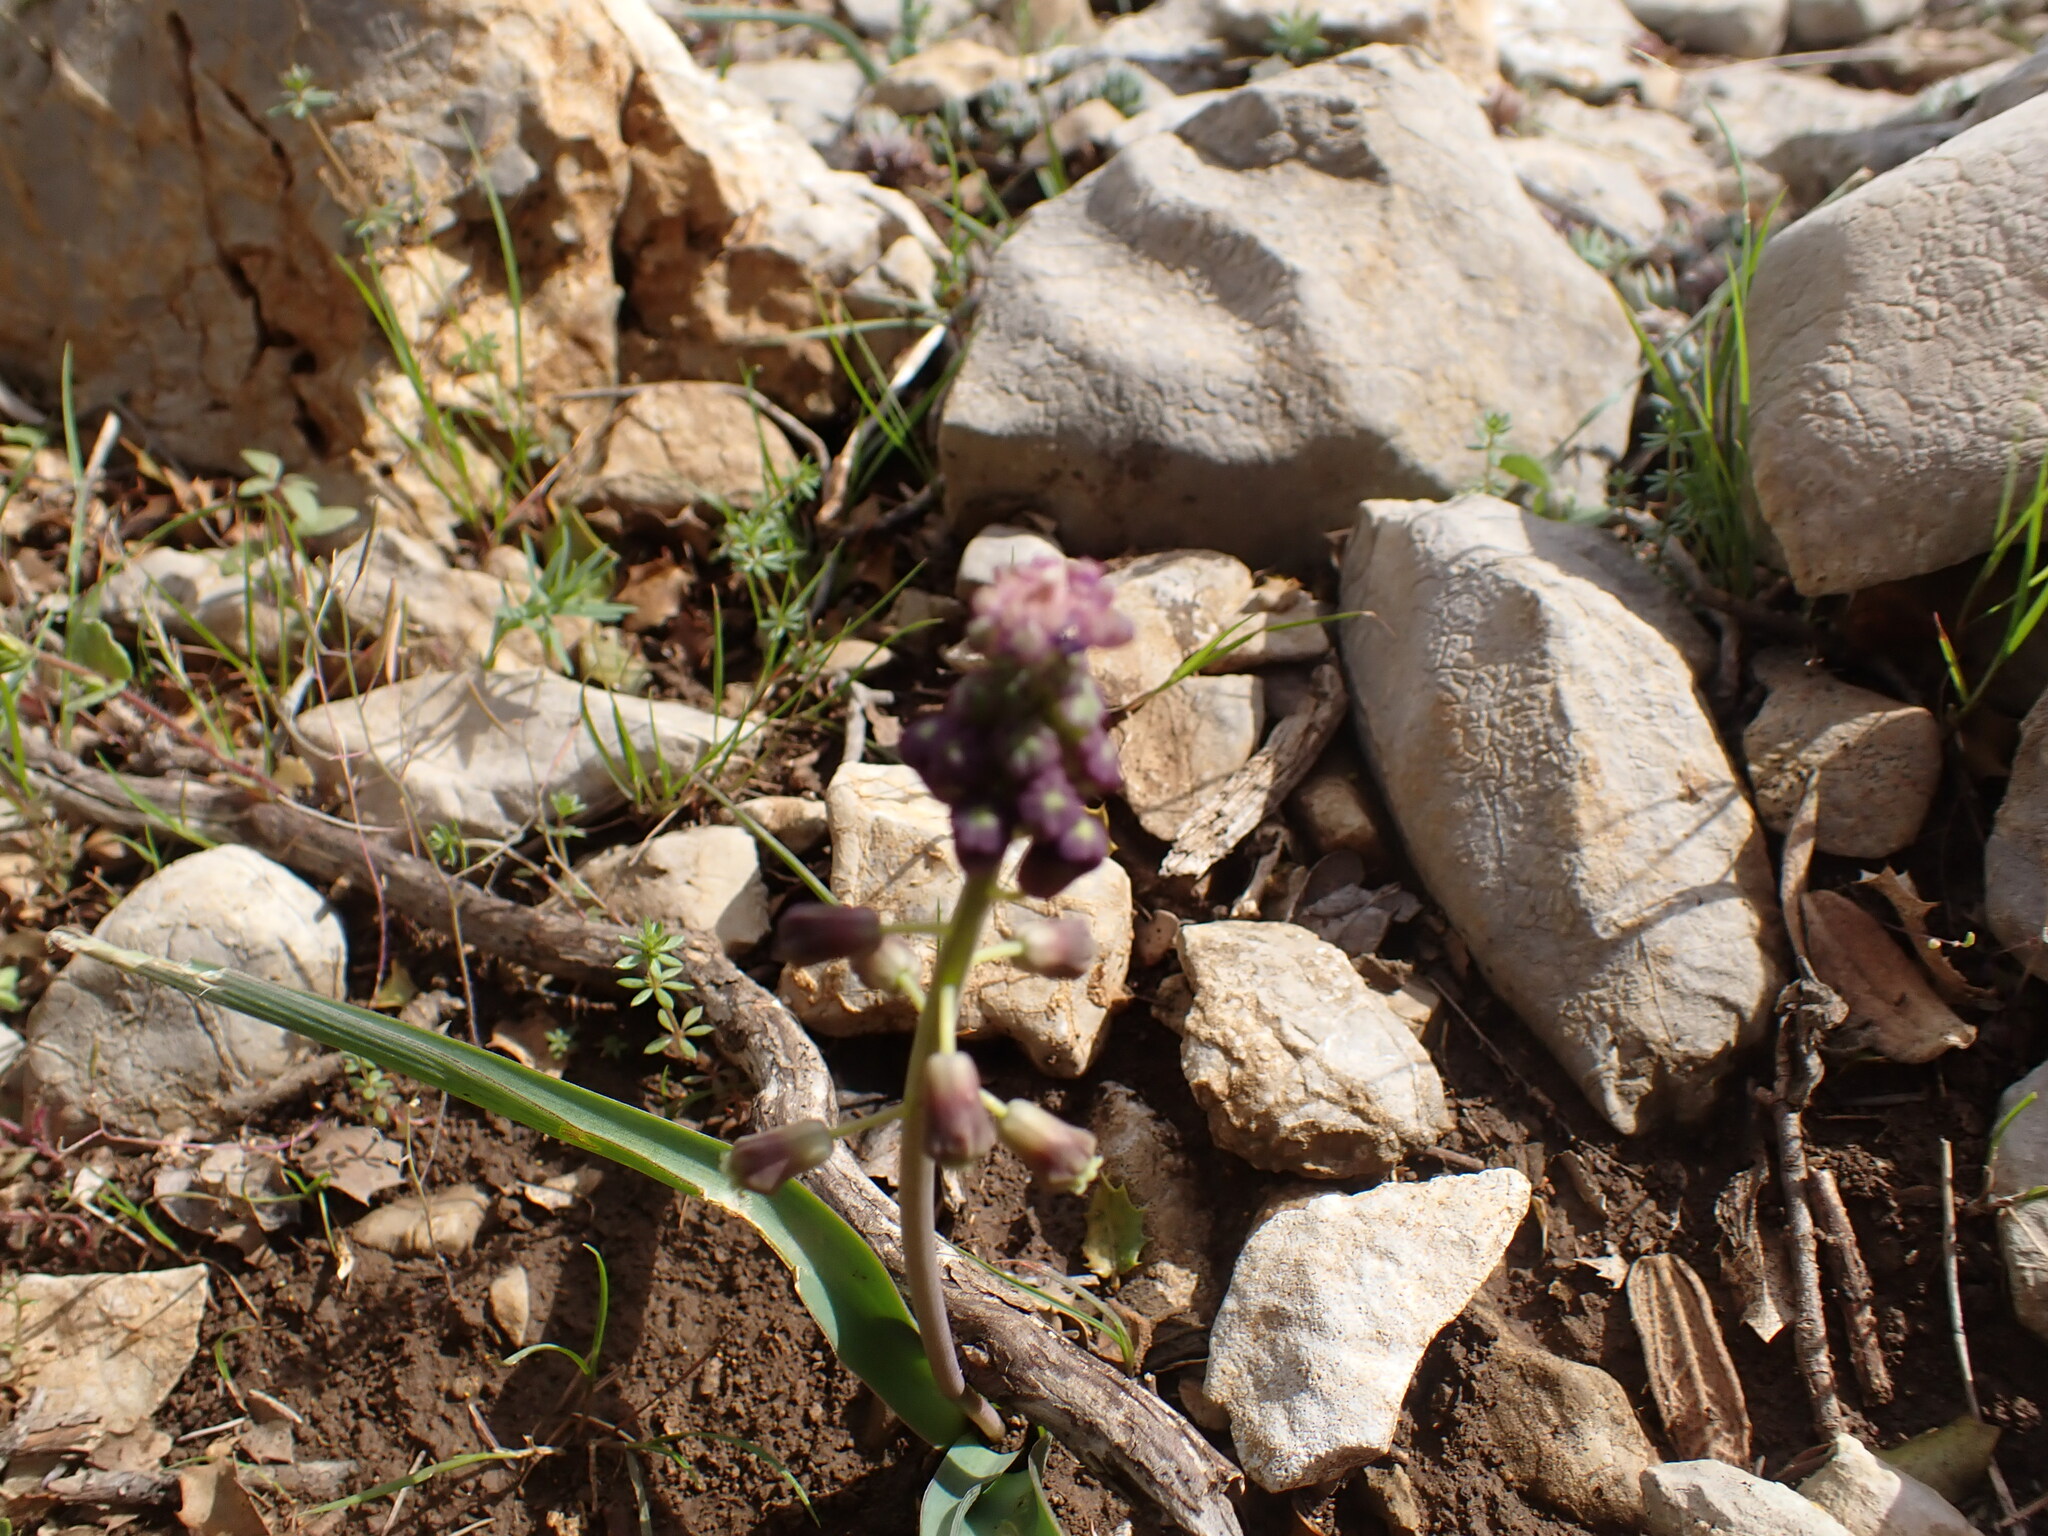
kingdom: Plantae
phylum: Tracheophyta
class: Liliopsida
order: Asparagales
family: Asparagaceae
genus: Muscari
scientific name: Muscari comosum
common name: Tassel hyacinth
